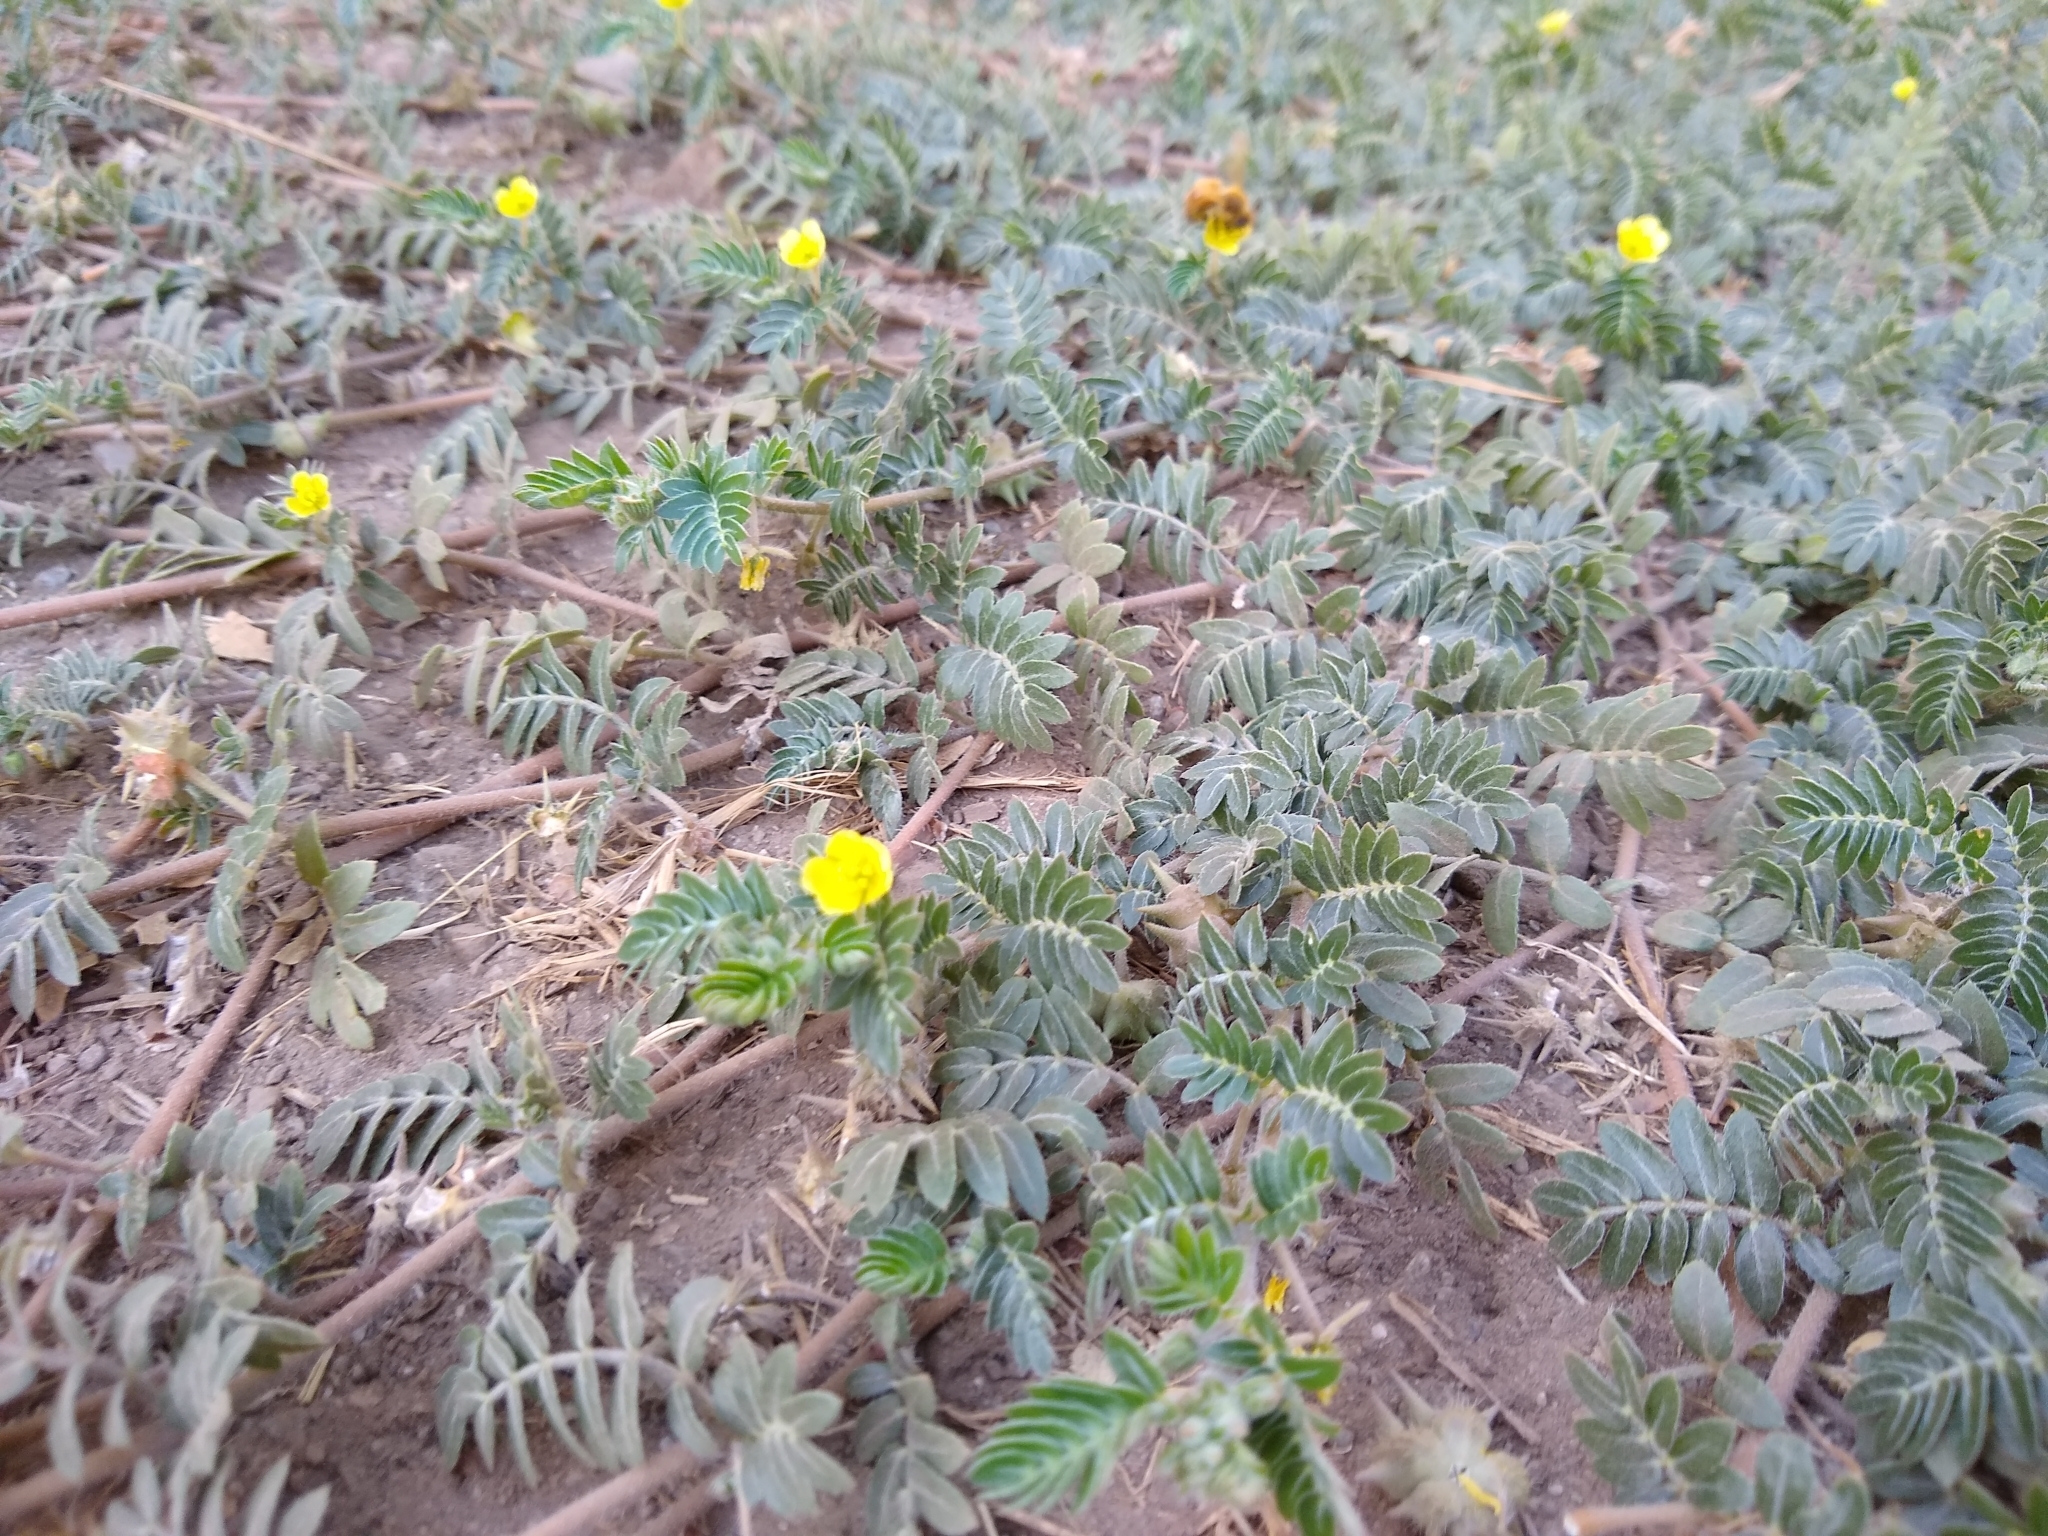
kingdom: Plantae
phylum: Tracheophyta
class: Magnoliopsida
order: Zygophyllales
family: Zygophyllaceae
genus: Tribulus
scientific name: Tribulus terrestris
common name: Puncturevine
